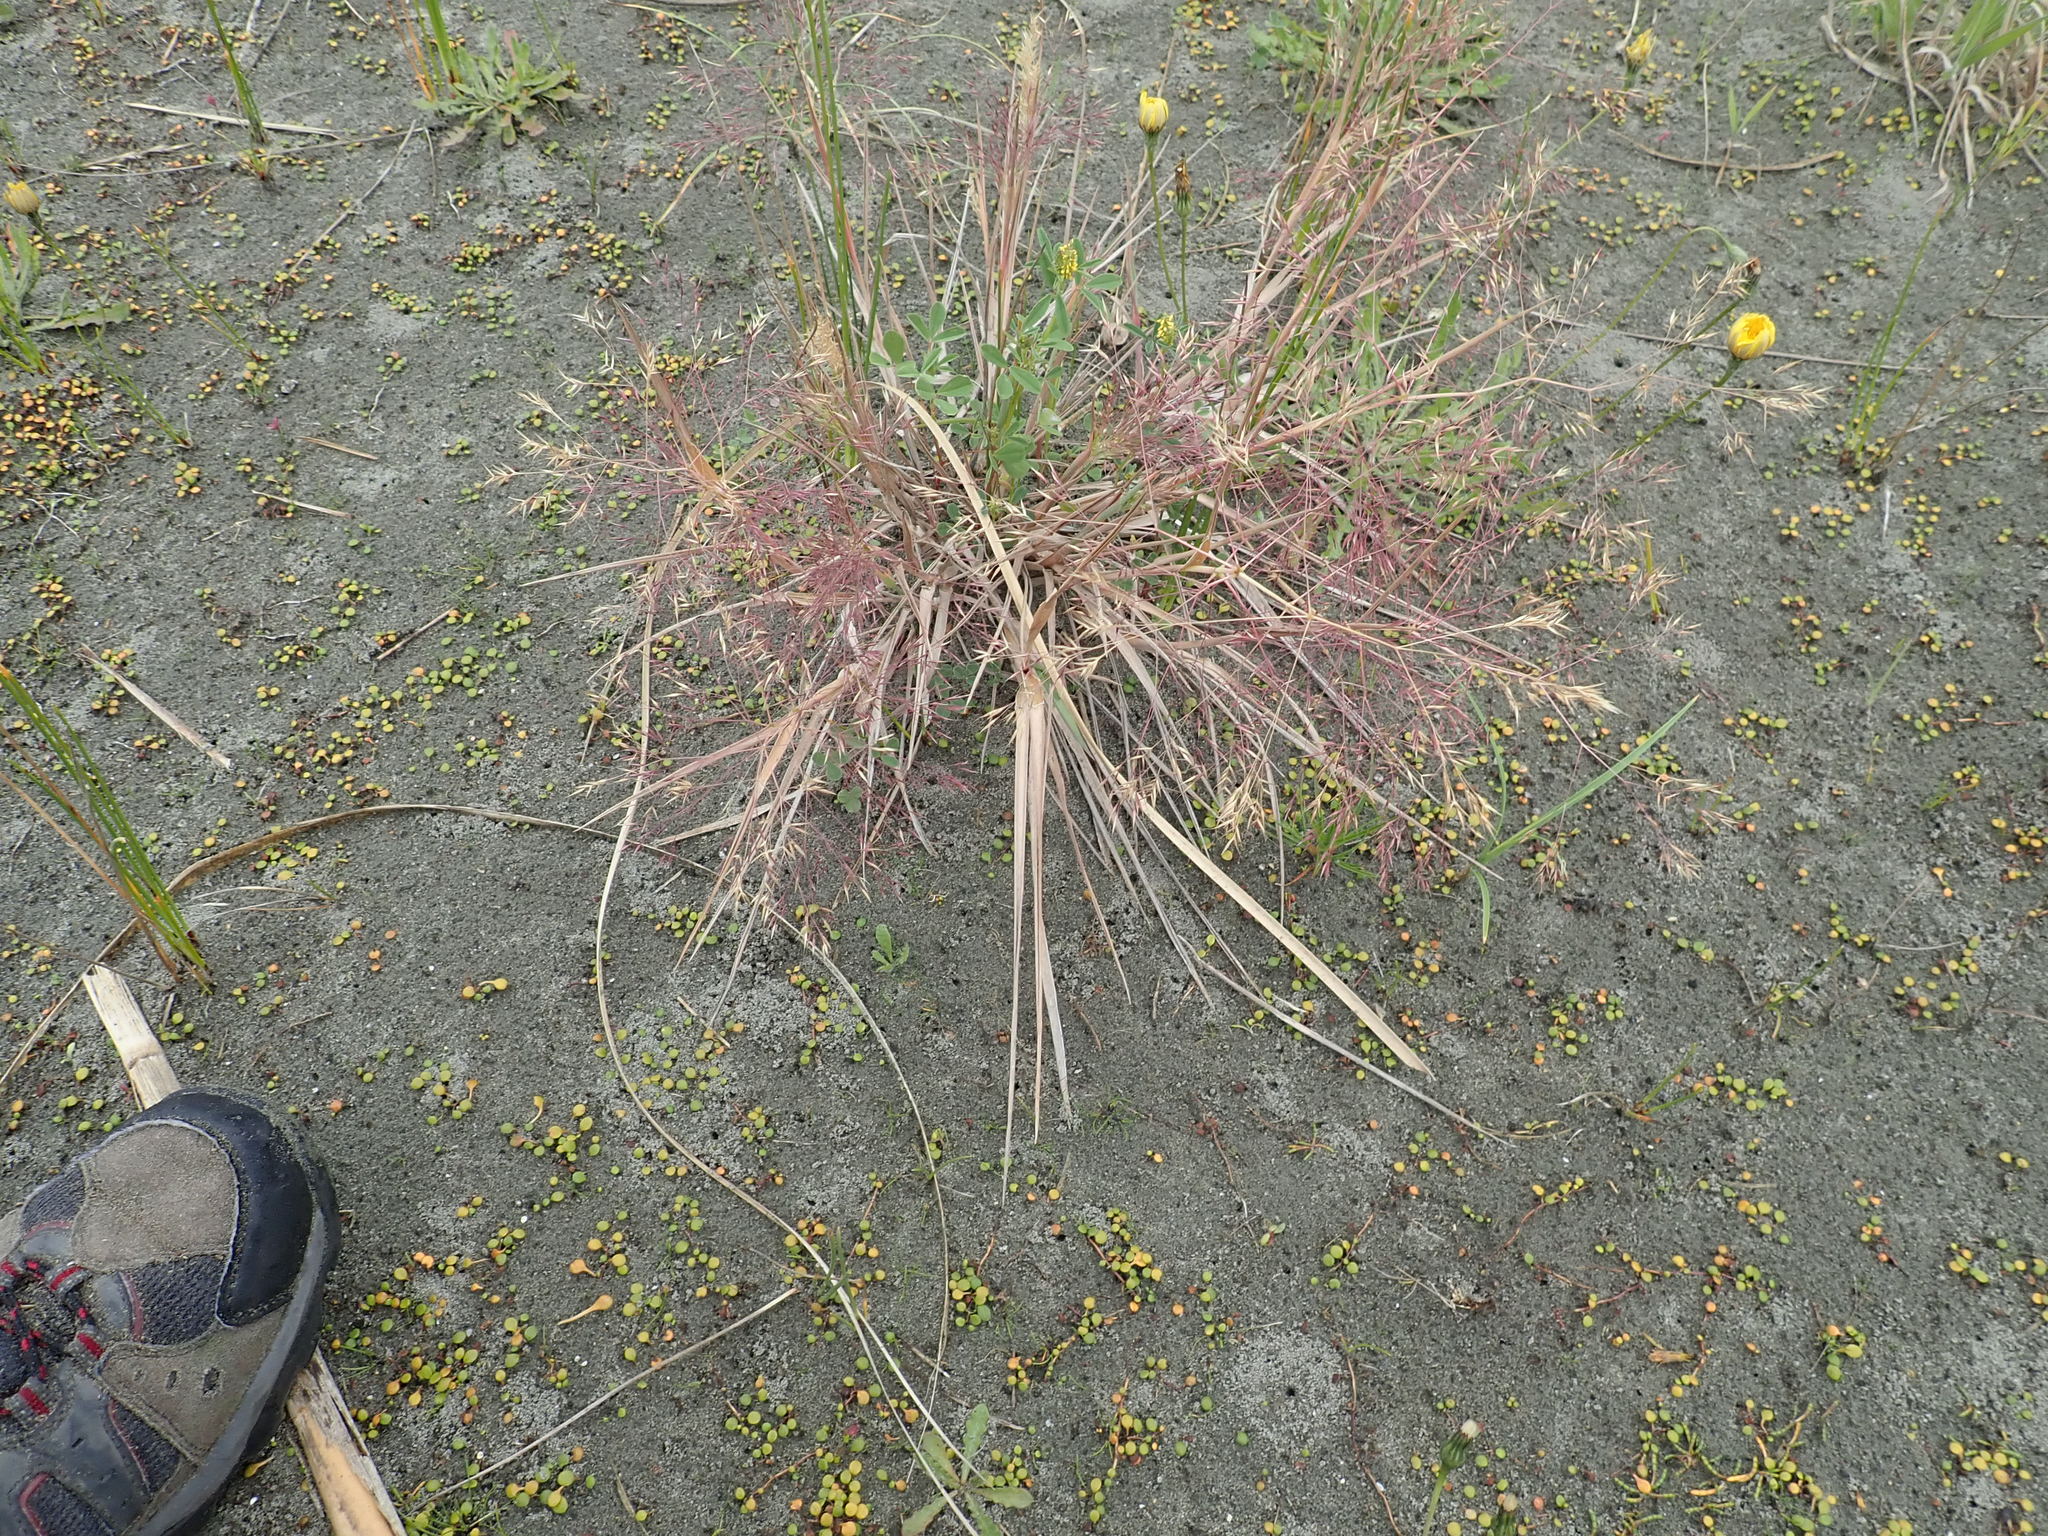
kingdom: Plantae
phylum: Tracheophyta
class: Liliopsida
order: Poales
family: Poaceae
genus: Lachnagrostis
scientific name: Lachnagrostis billardierei
